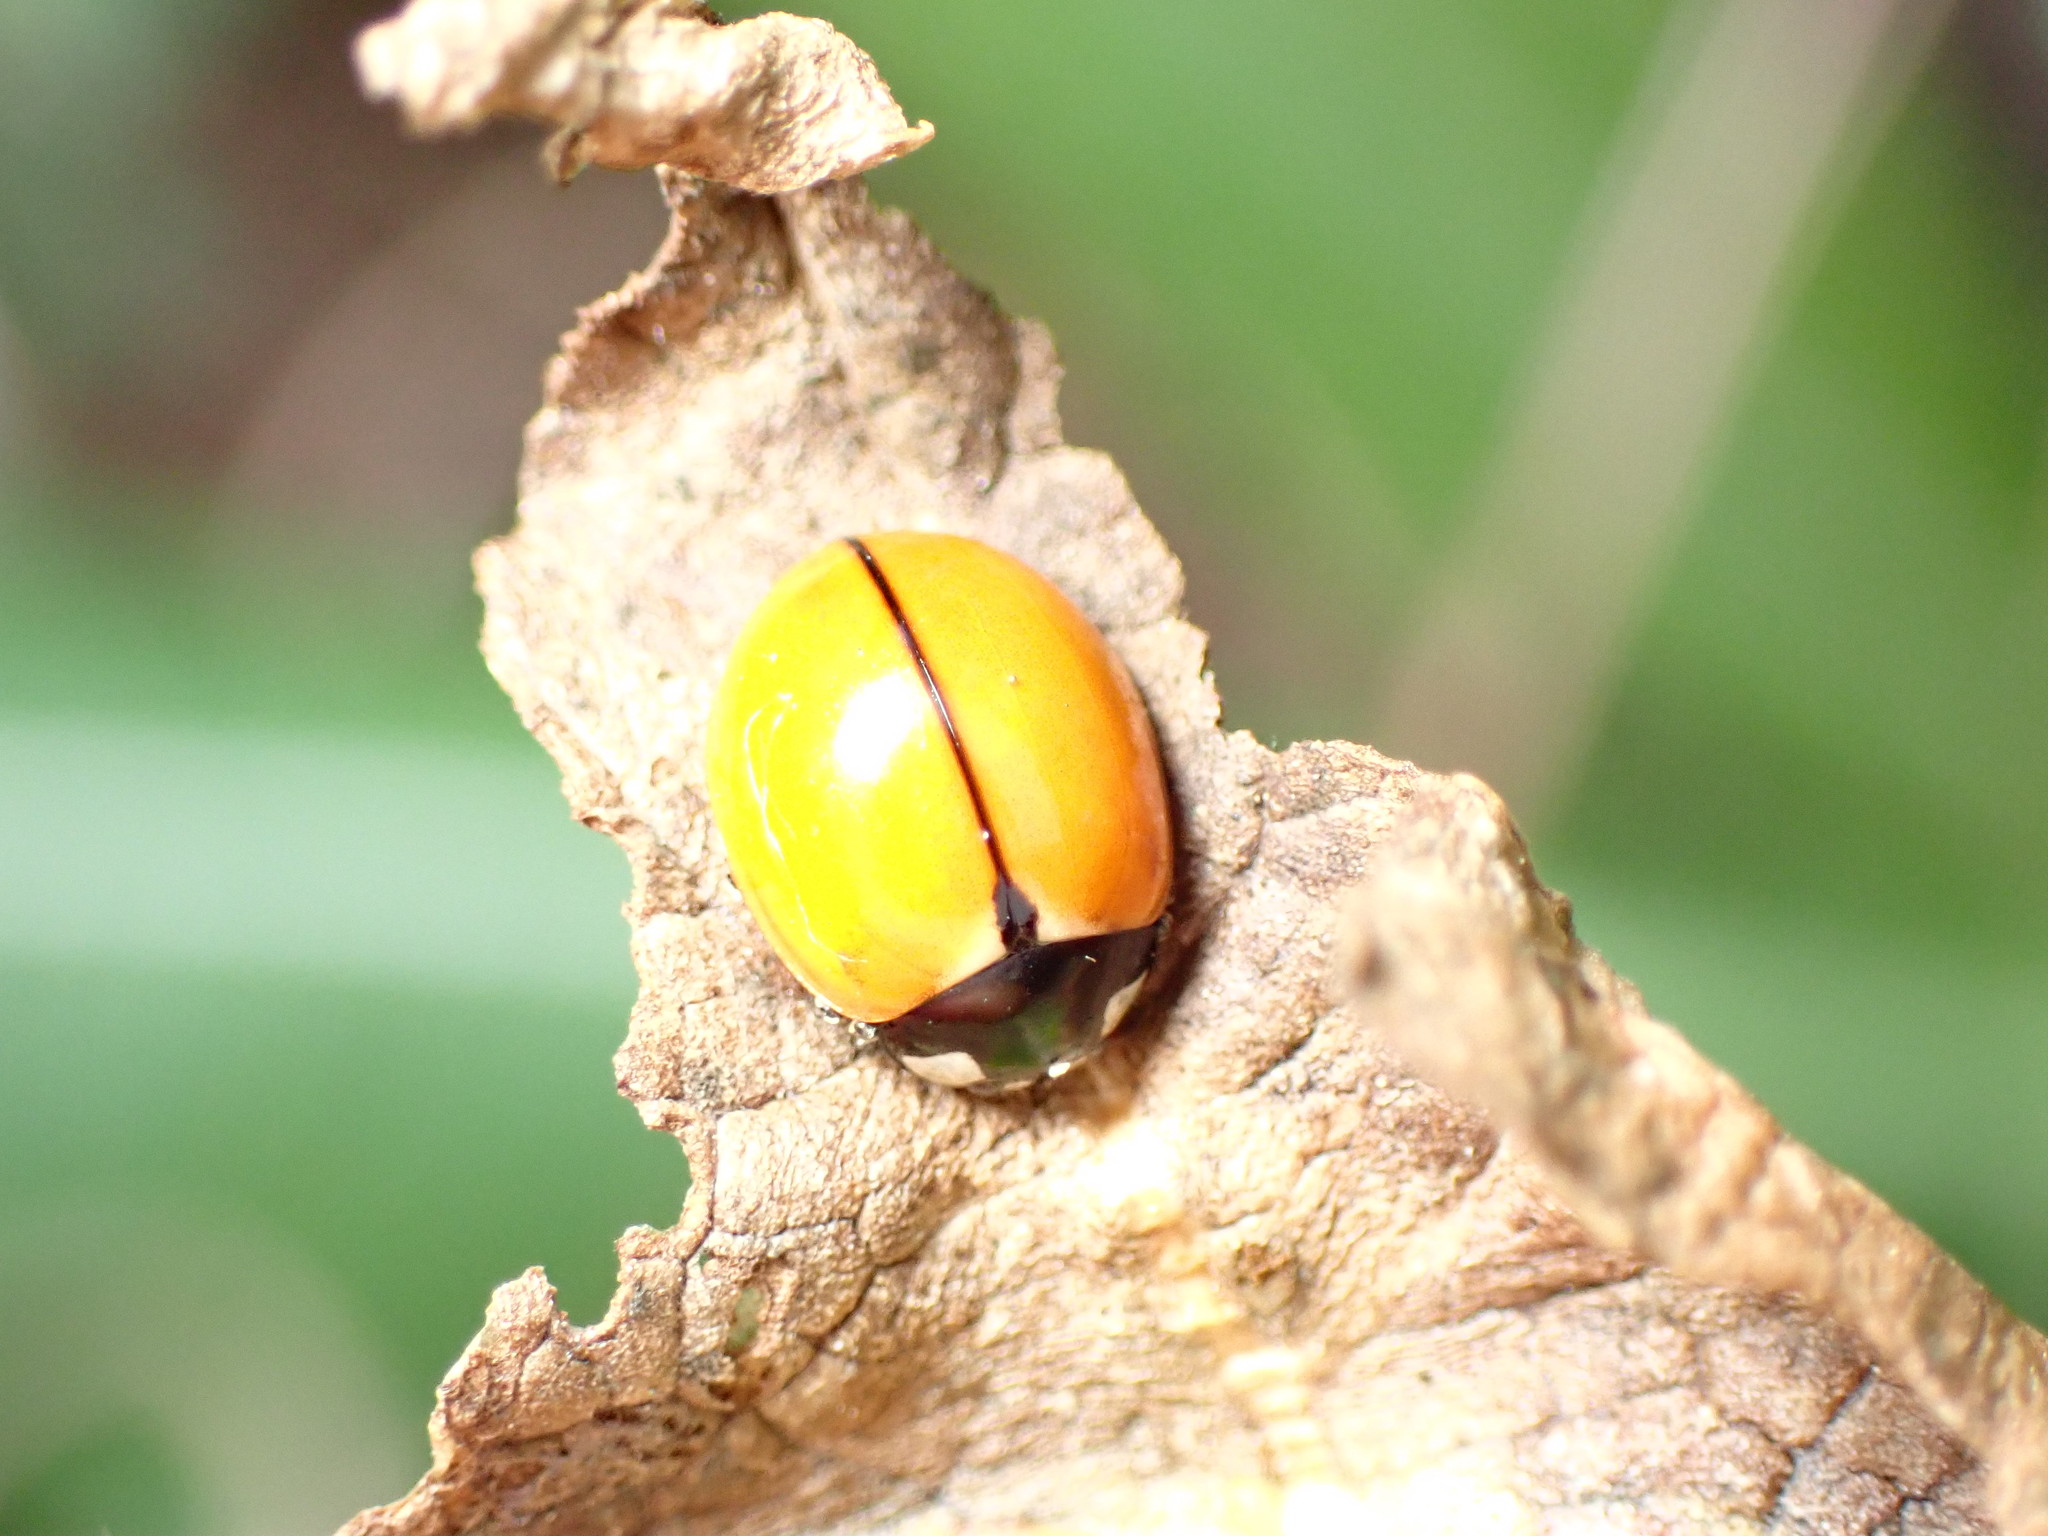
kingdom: Animalia
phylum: Arthropoda
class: Insecta
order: Coleoptera
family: Coccinellidae
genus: Coccinella
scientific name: Coccinella californica
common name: Lady beetle
